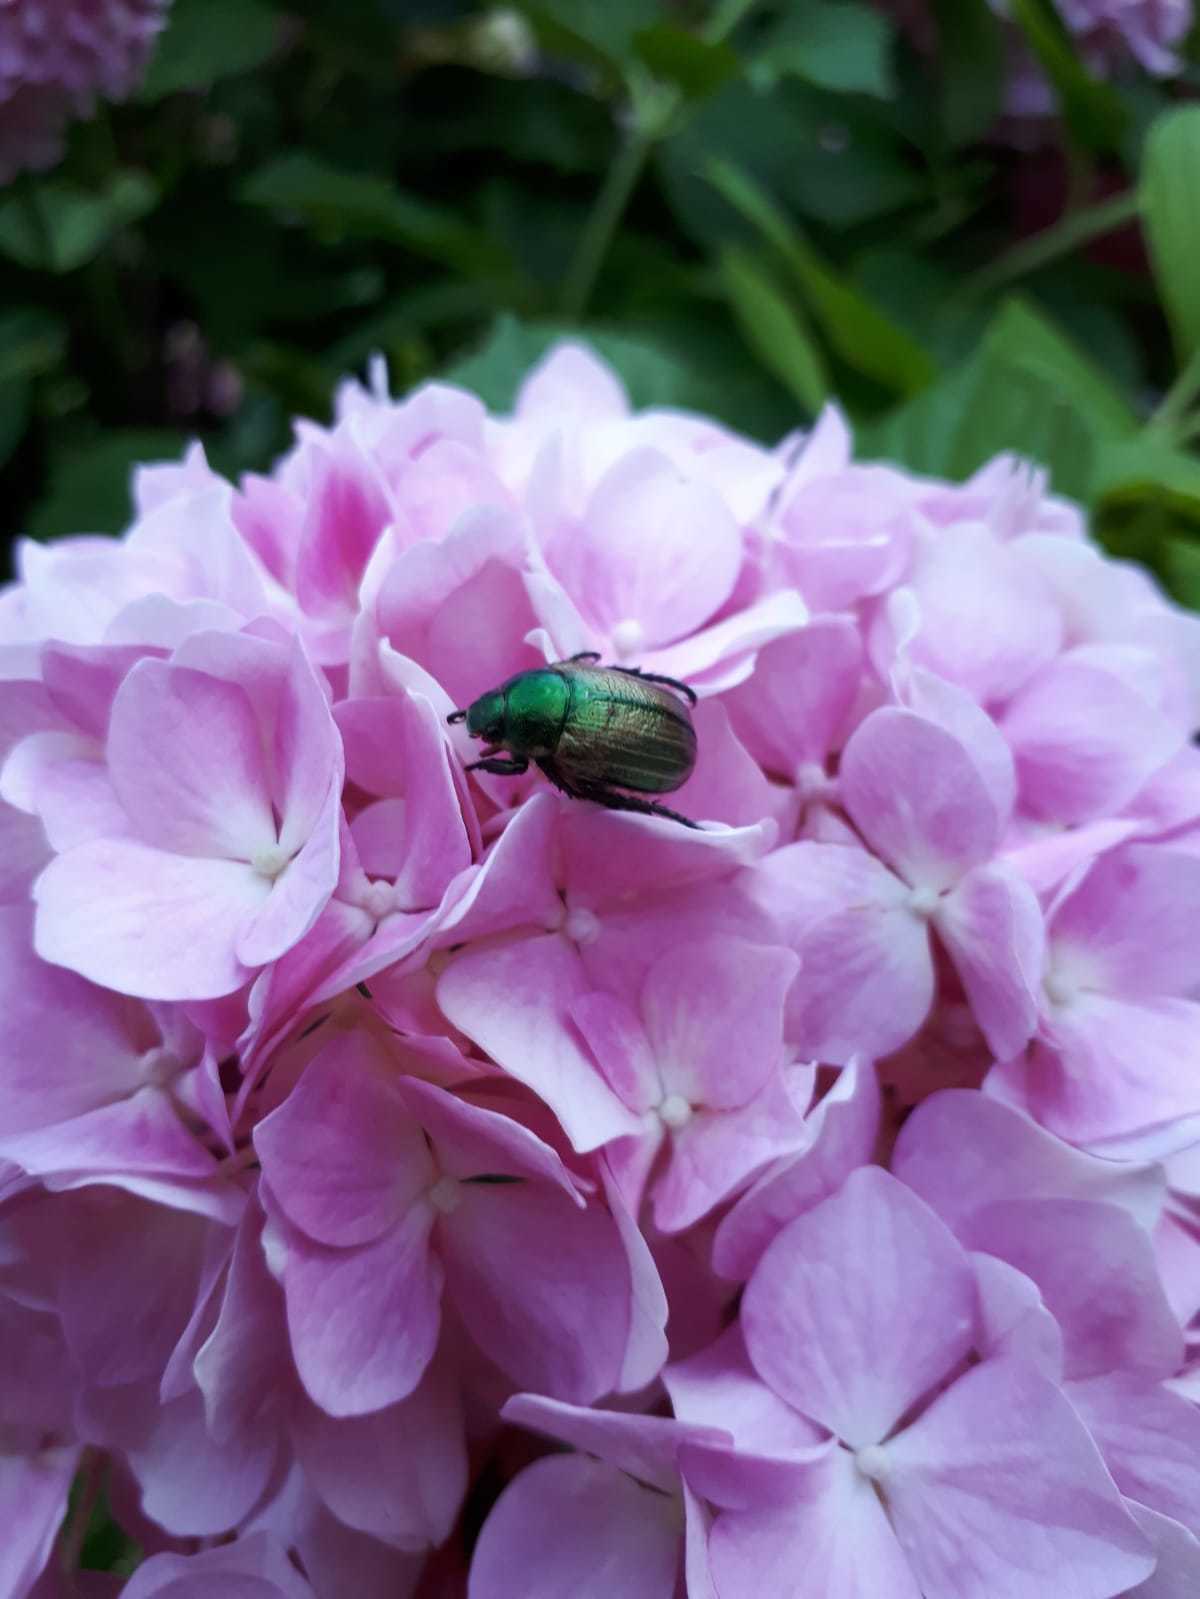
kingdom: Animalia
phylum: Arthropoda
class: Insecta
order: Coleoptera
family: Scarabaeidae
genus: Mimela
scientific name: Mimela junii
